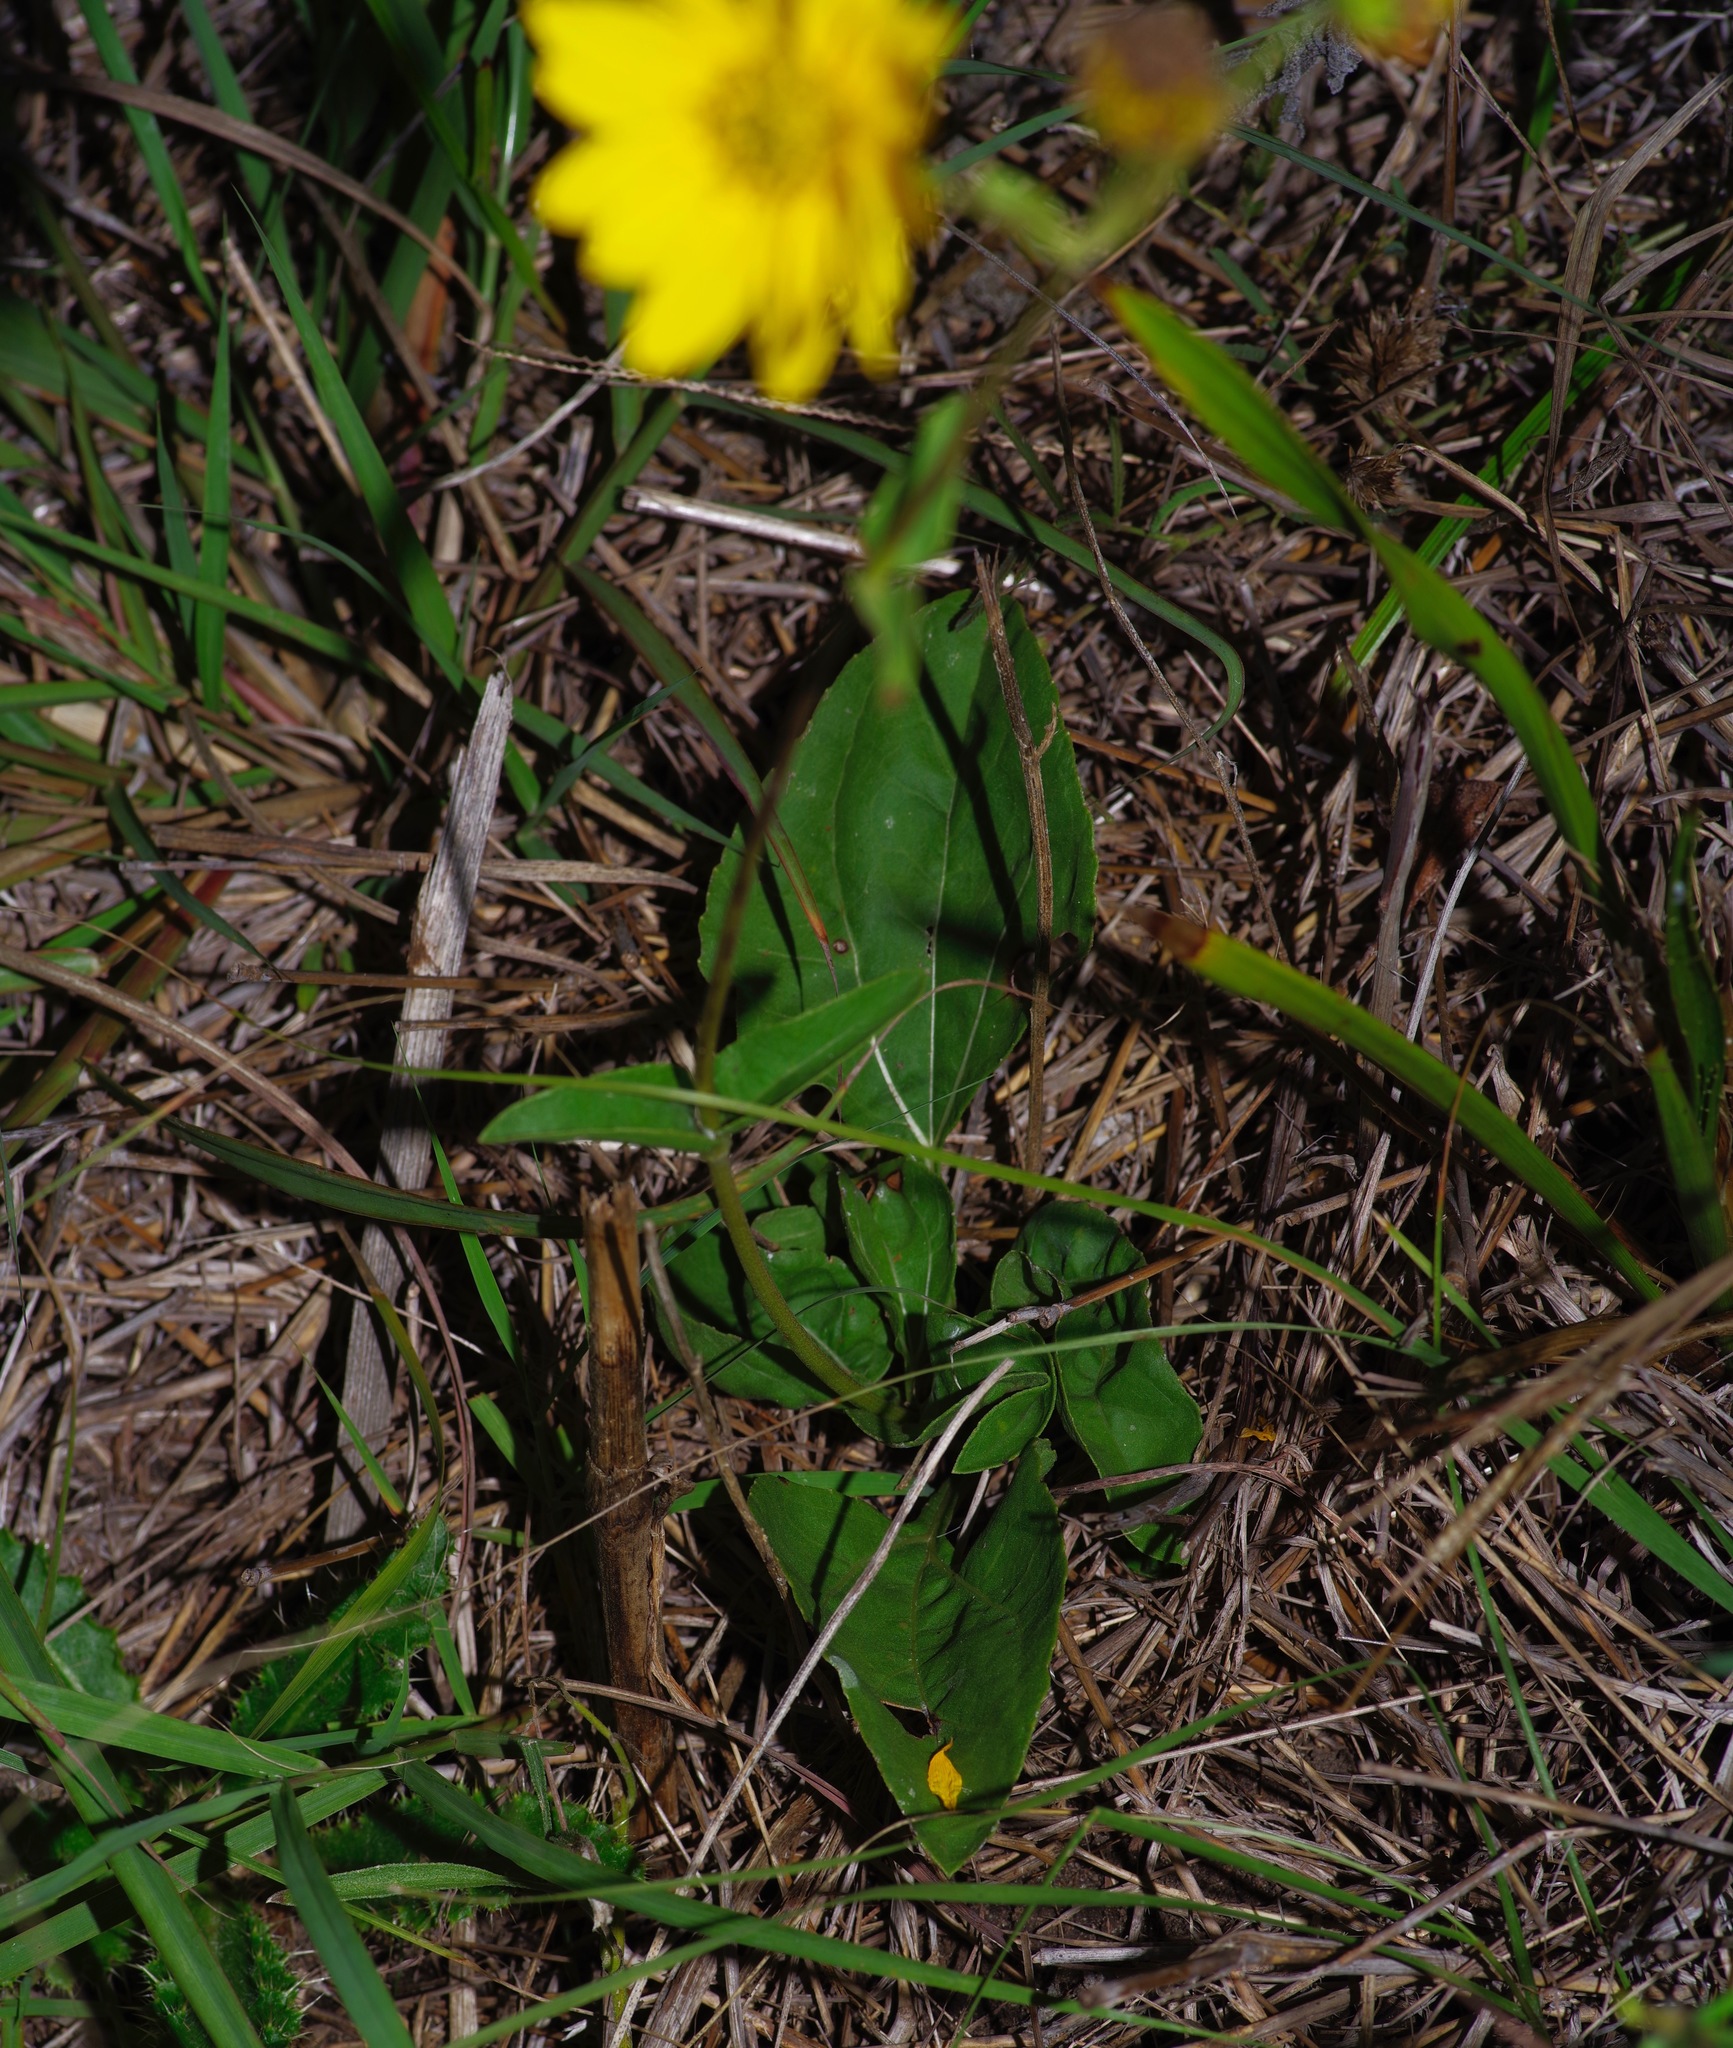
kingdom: Plantae
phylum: Tracheophyta
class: Magnoliopsida
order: Asterales
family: Asteraceae
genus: Helianthus
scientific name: Helianthus occidentalis
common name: Western sunflower
